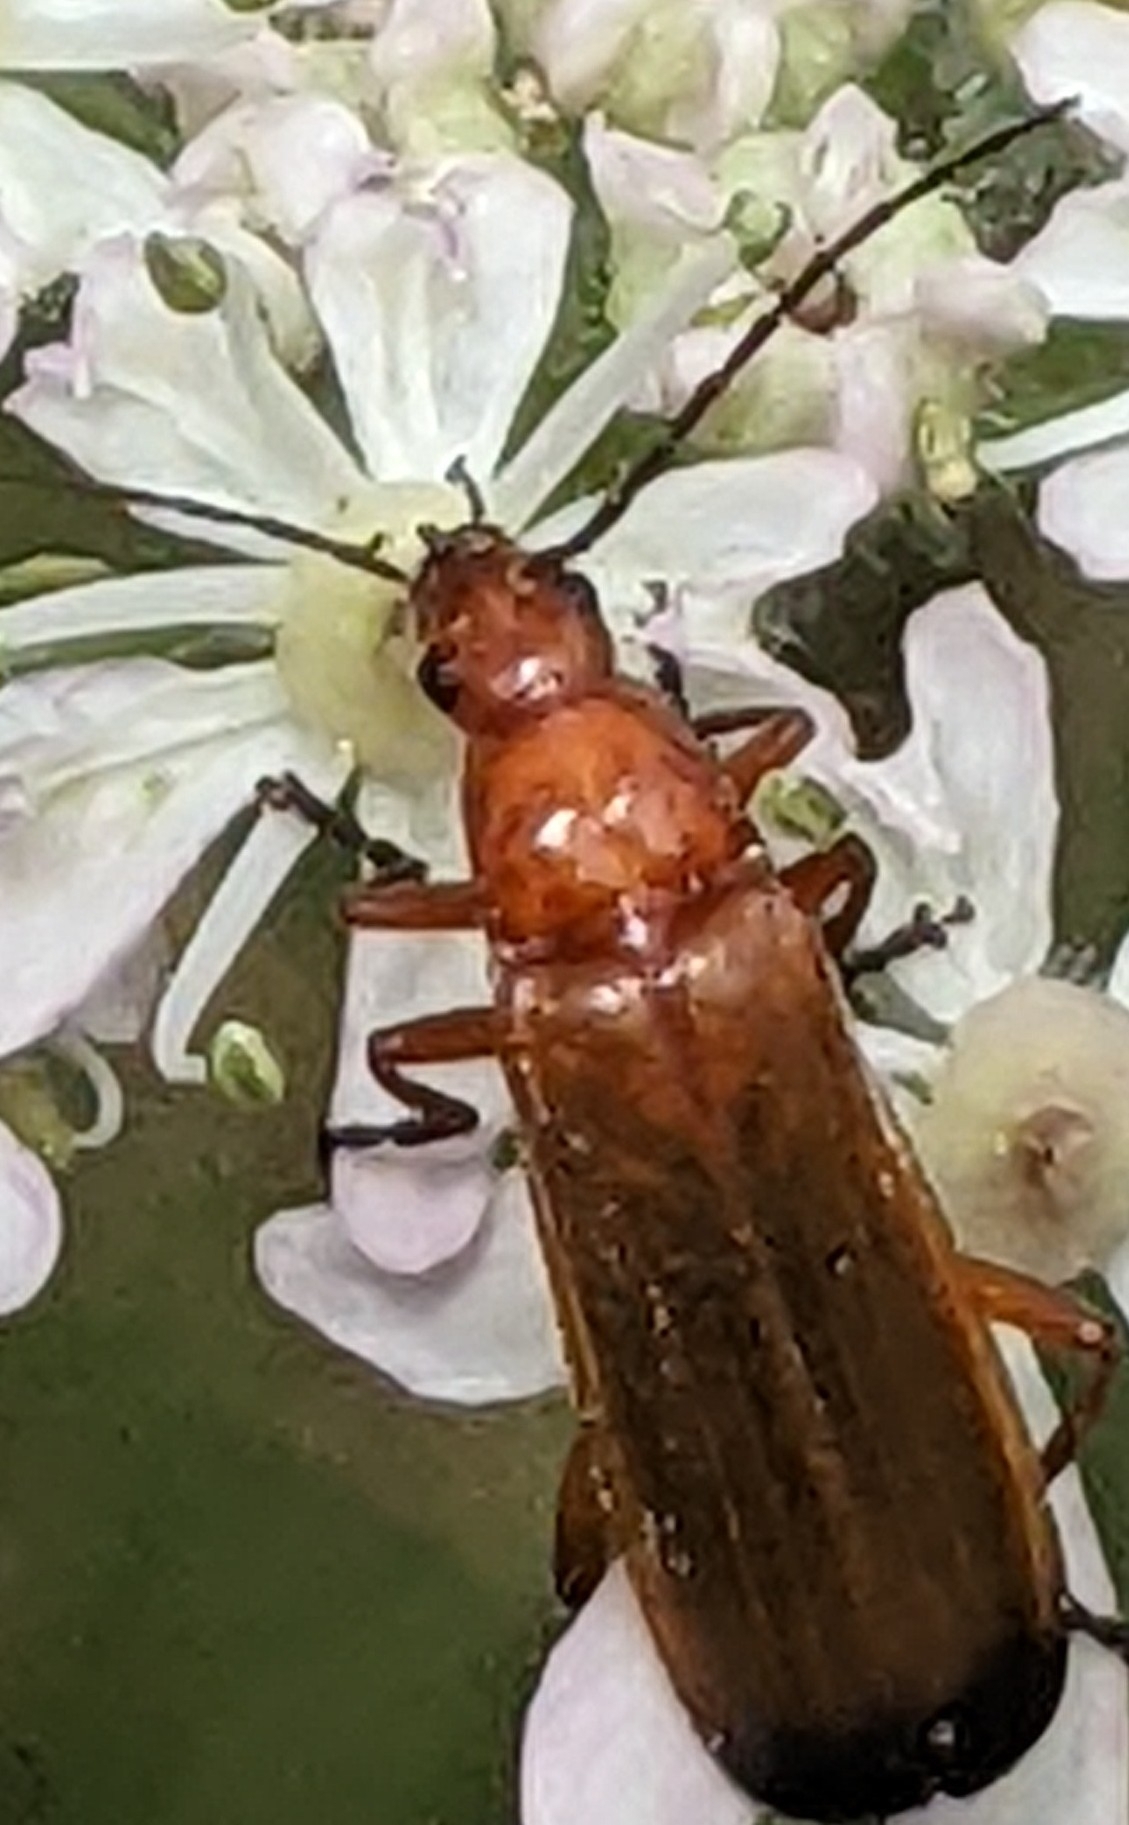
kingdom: Animalia
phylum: Arthropoda
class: Insecta
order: Coleoptera
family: Cantharidae
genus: Rhagonycha
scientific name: Rhagonycha fulva
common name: Common red soldier beetle
